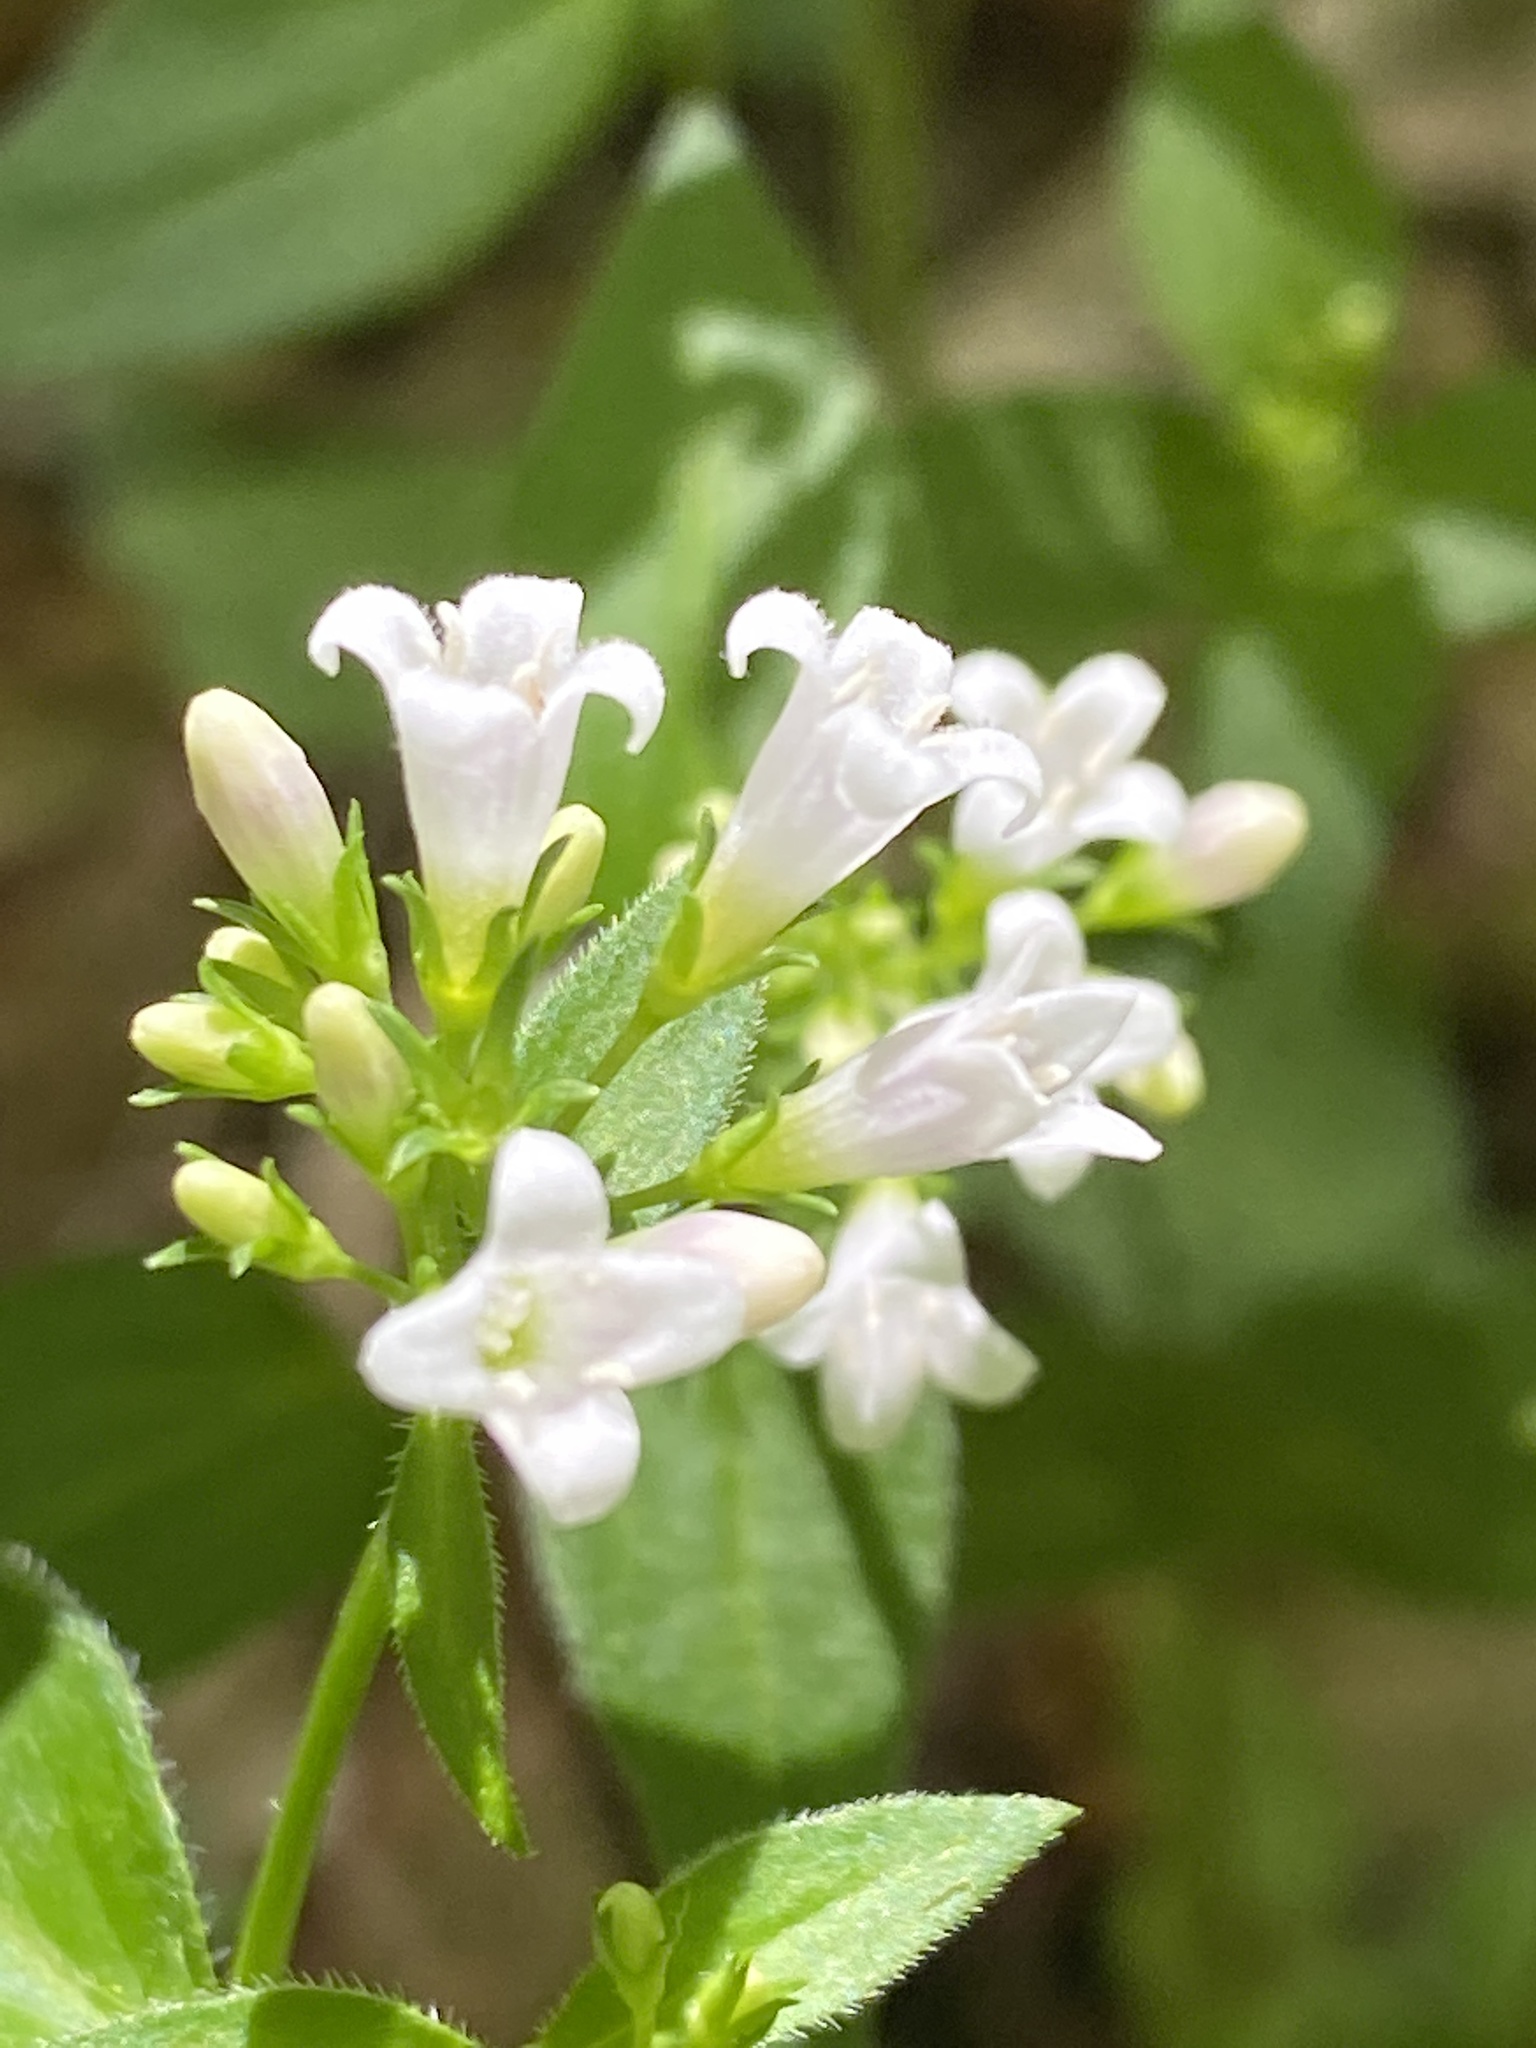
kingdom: Plantae
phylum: Tracheophyta
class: Magnoliopsida
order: Gentianales
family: Rubiaceae
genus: Houstonia
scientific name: Houstonia purpurea
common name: Summer bluet
